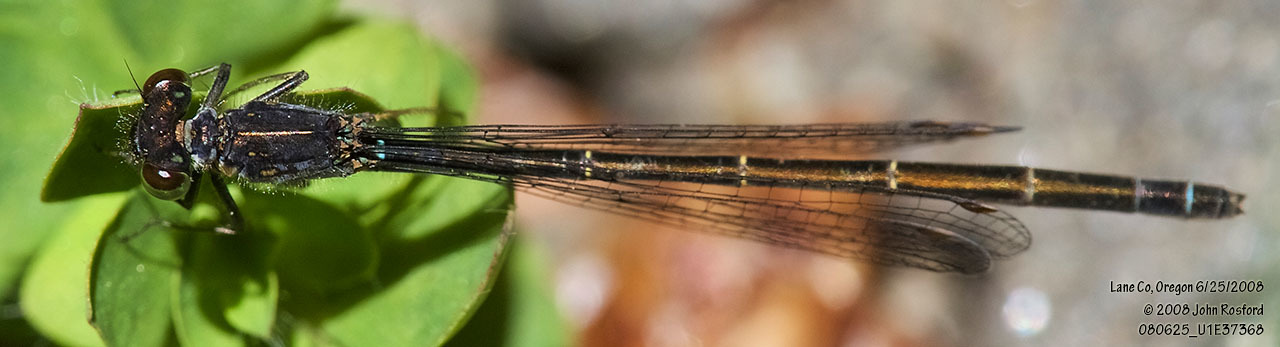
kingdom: Animalia
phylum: Arthropoda
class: Insecta
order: Odonata
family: Coenagrionidae
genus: Ischnura
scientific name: Ischnura cervula
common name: Pacific forktail
